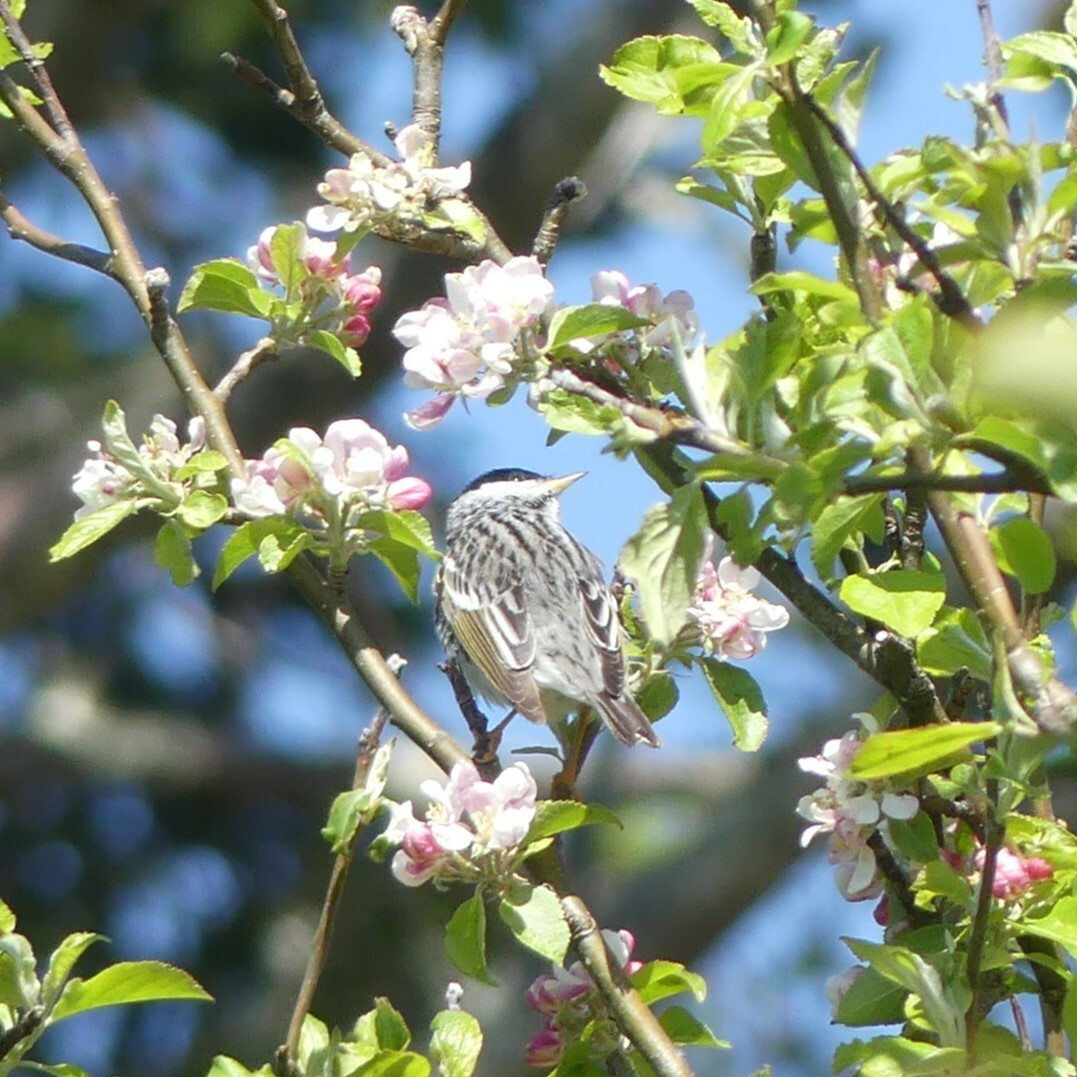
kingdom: Animalia
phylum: Chordata
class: Aves
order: Passeriformes
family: Parulidae
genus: Setophaga
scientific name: Setophaga striata
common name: Blackpoll warbler
